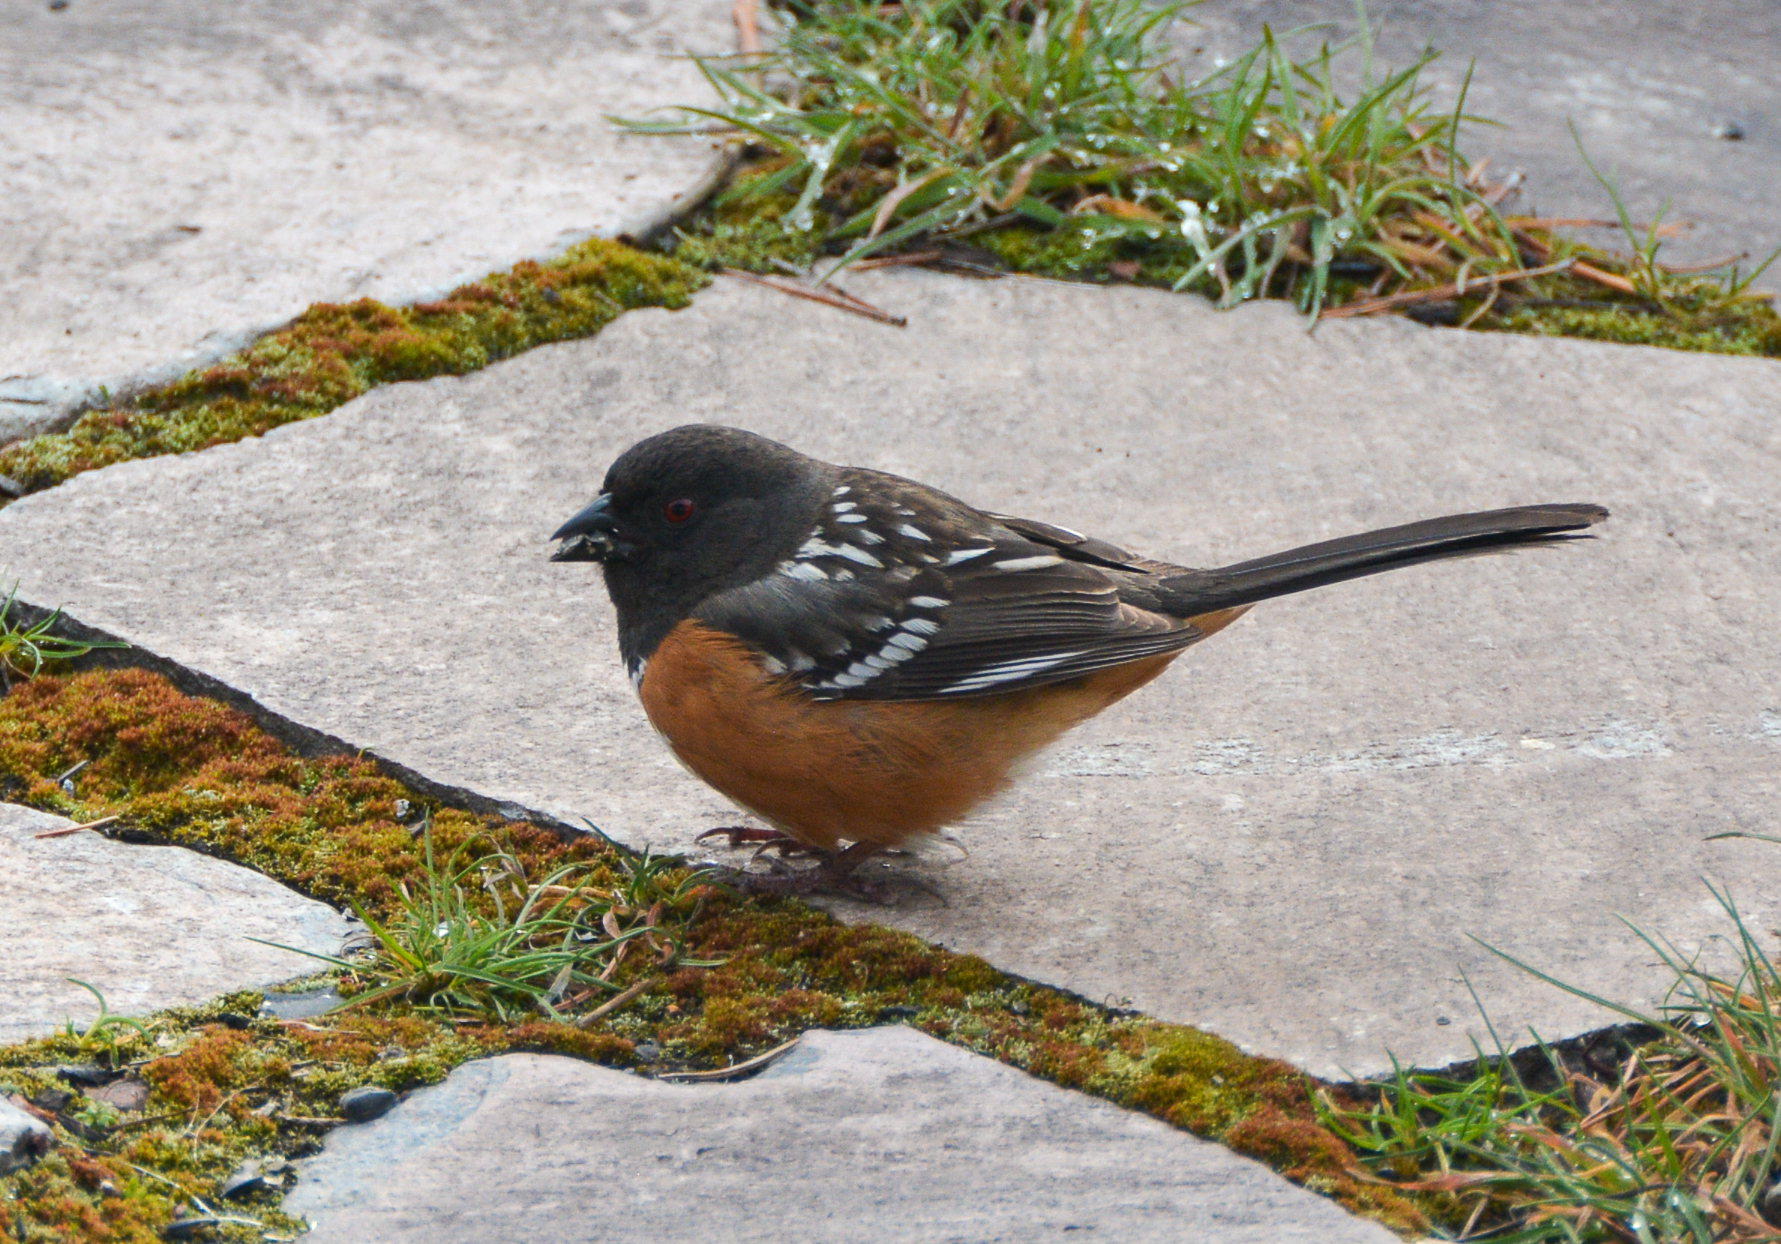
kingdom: Animalia
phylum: Chordata
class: Aves
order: Passeriformes
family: Passerellidae
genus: Pipilo
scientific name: Pipilo maculatus
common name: Spotted towhee
